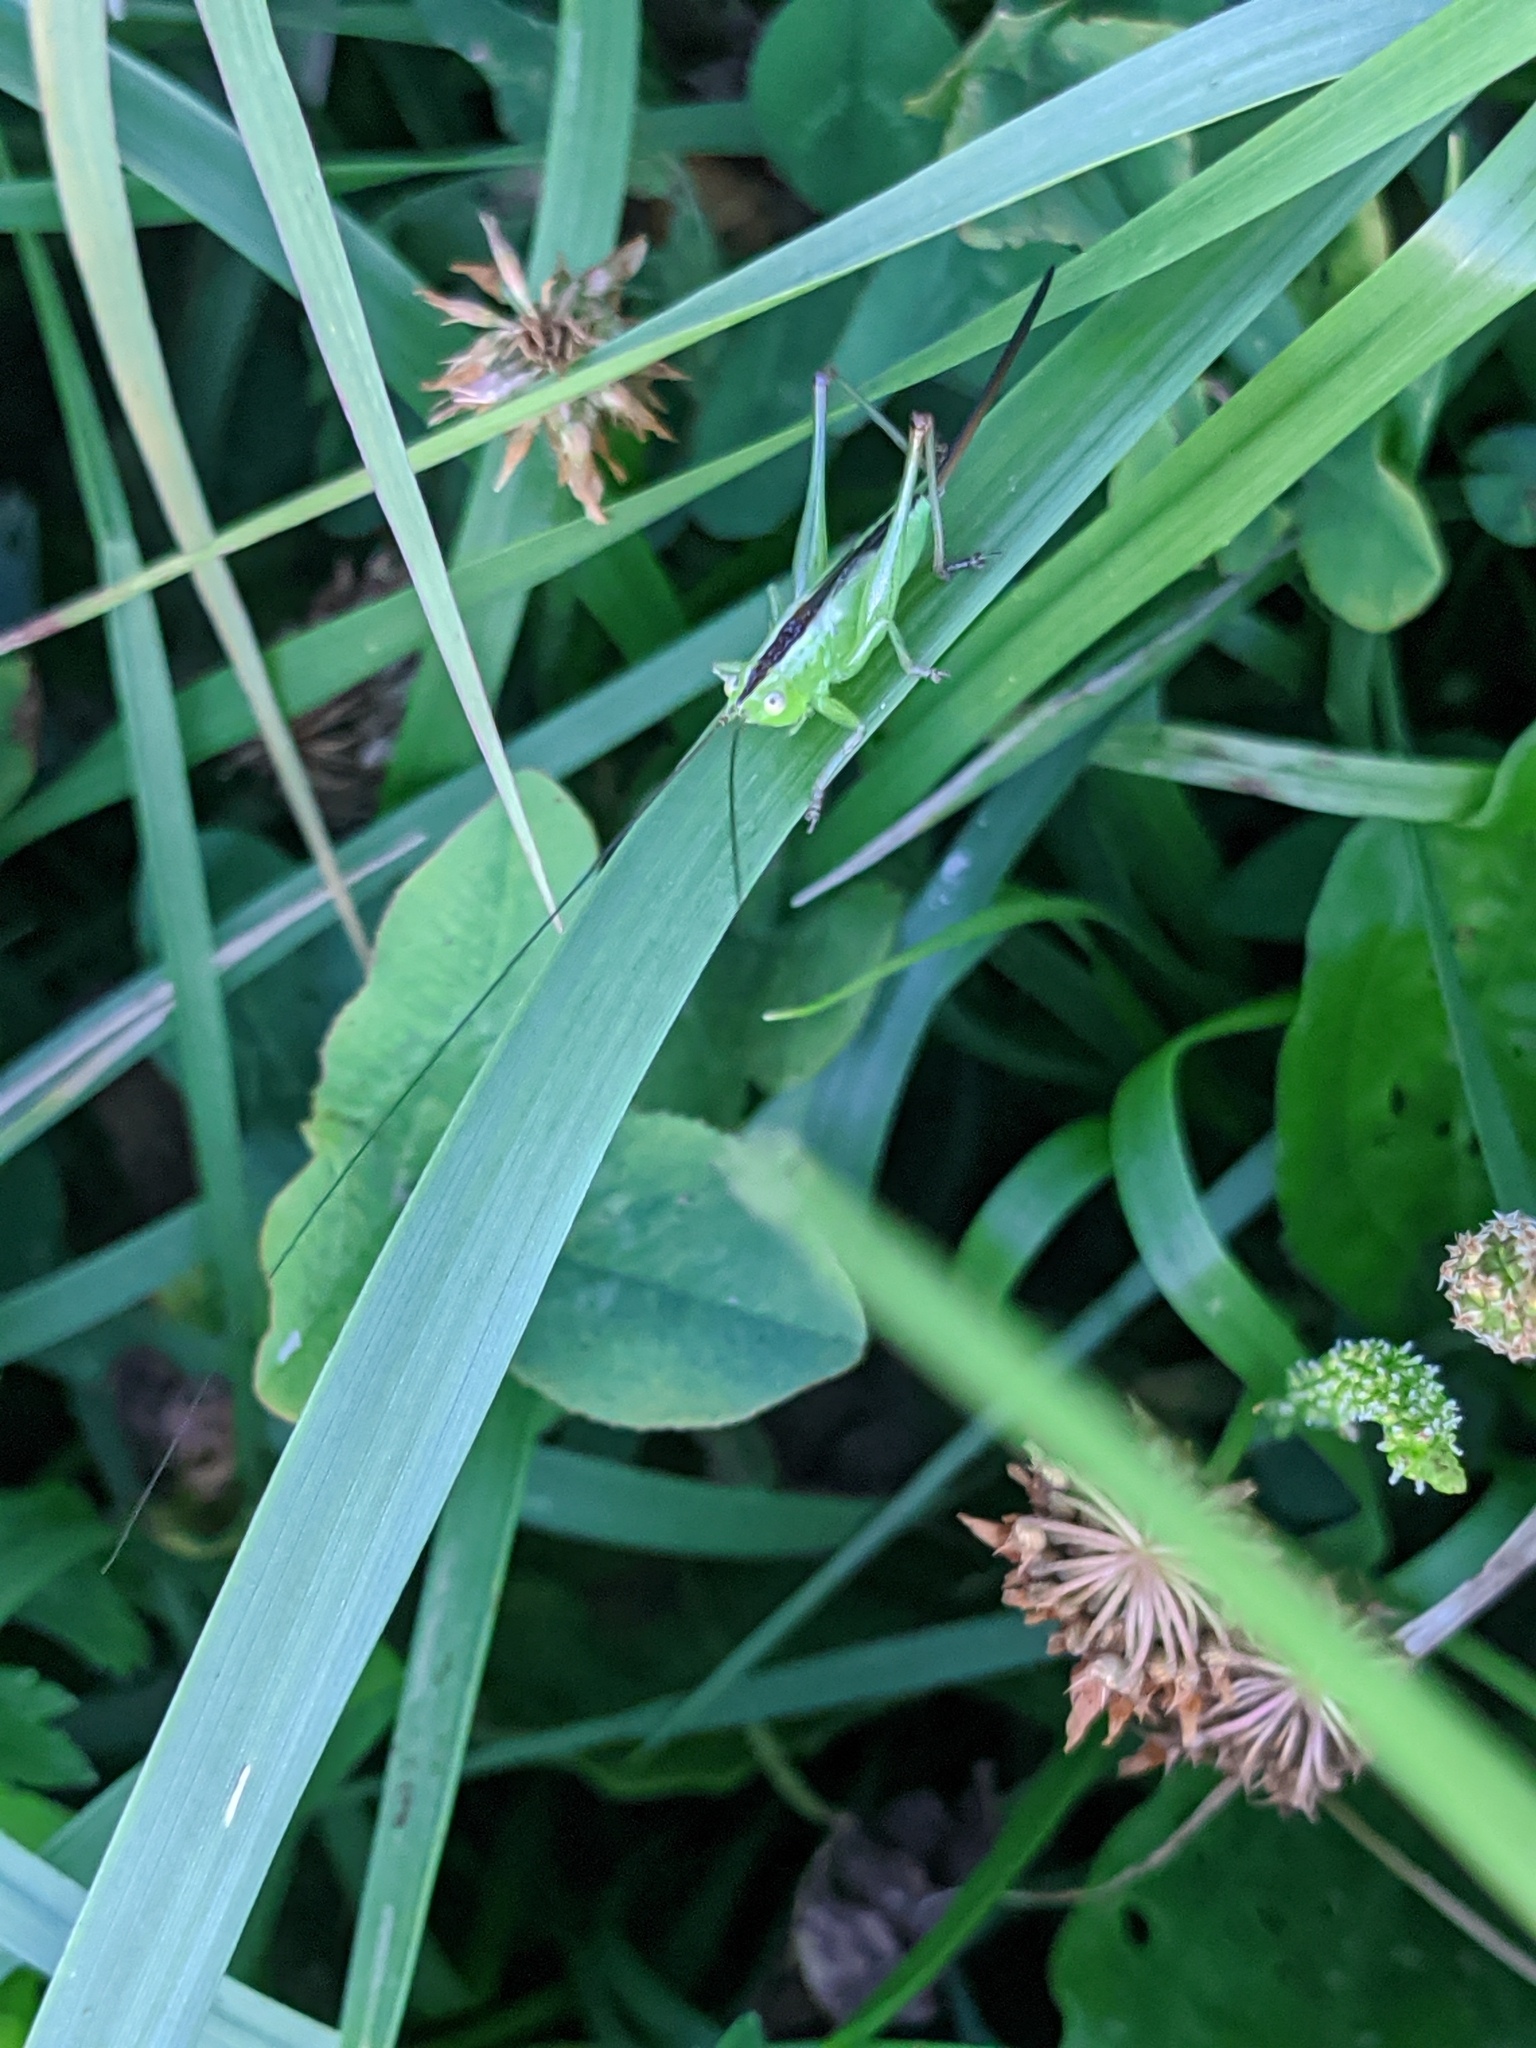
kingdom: Animalia
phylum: Arthropoda
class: Insecta
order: Orthoptera
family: Tettigoniidae
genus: Conocephalus
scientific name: Conocephalus fuscus
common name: Long-winged conehead
